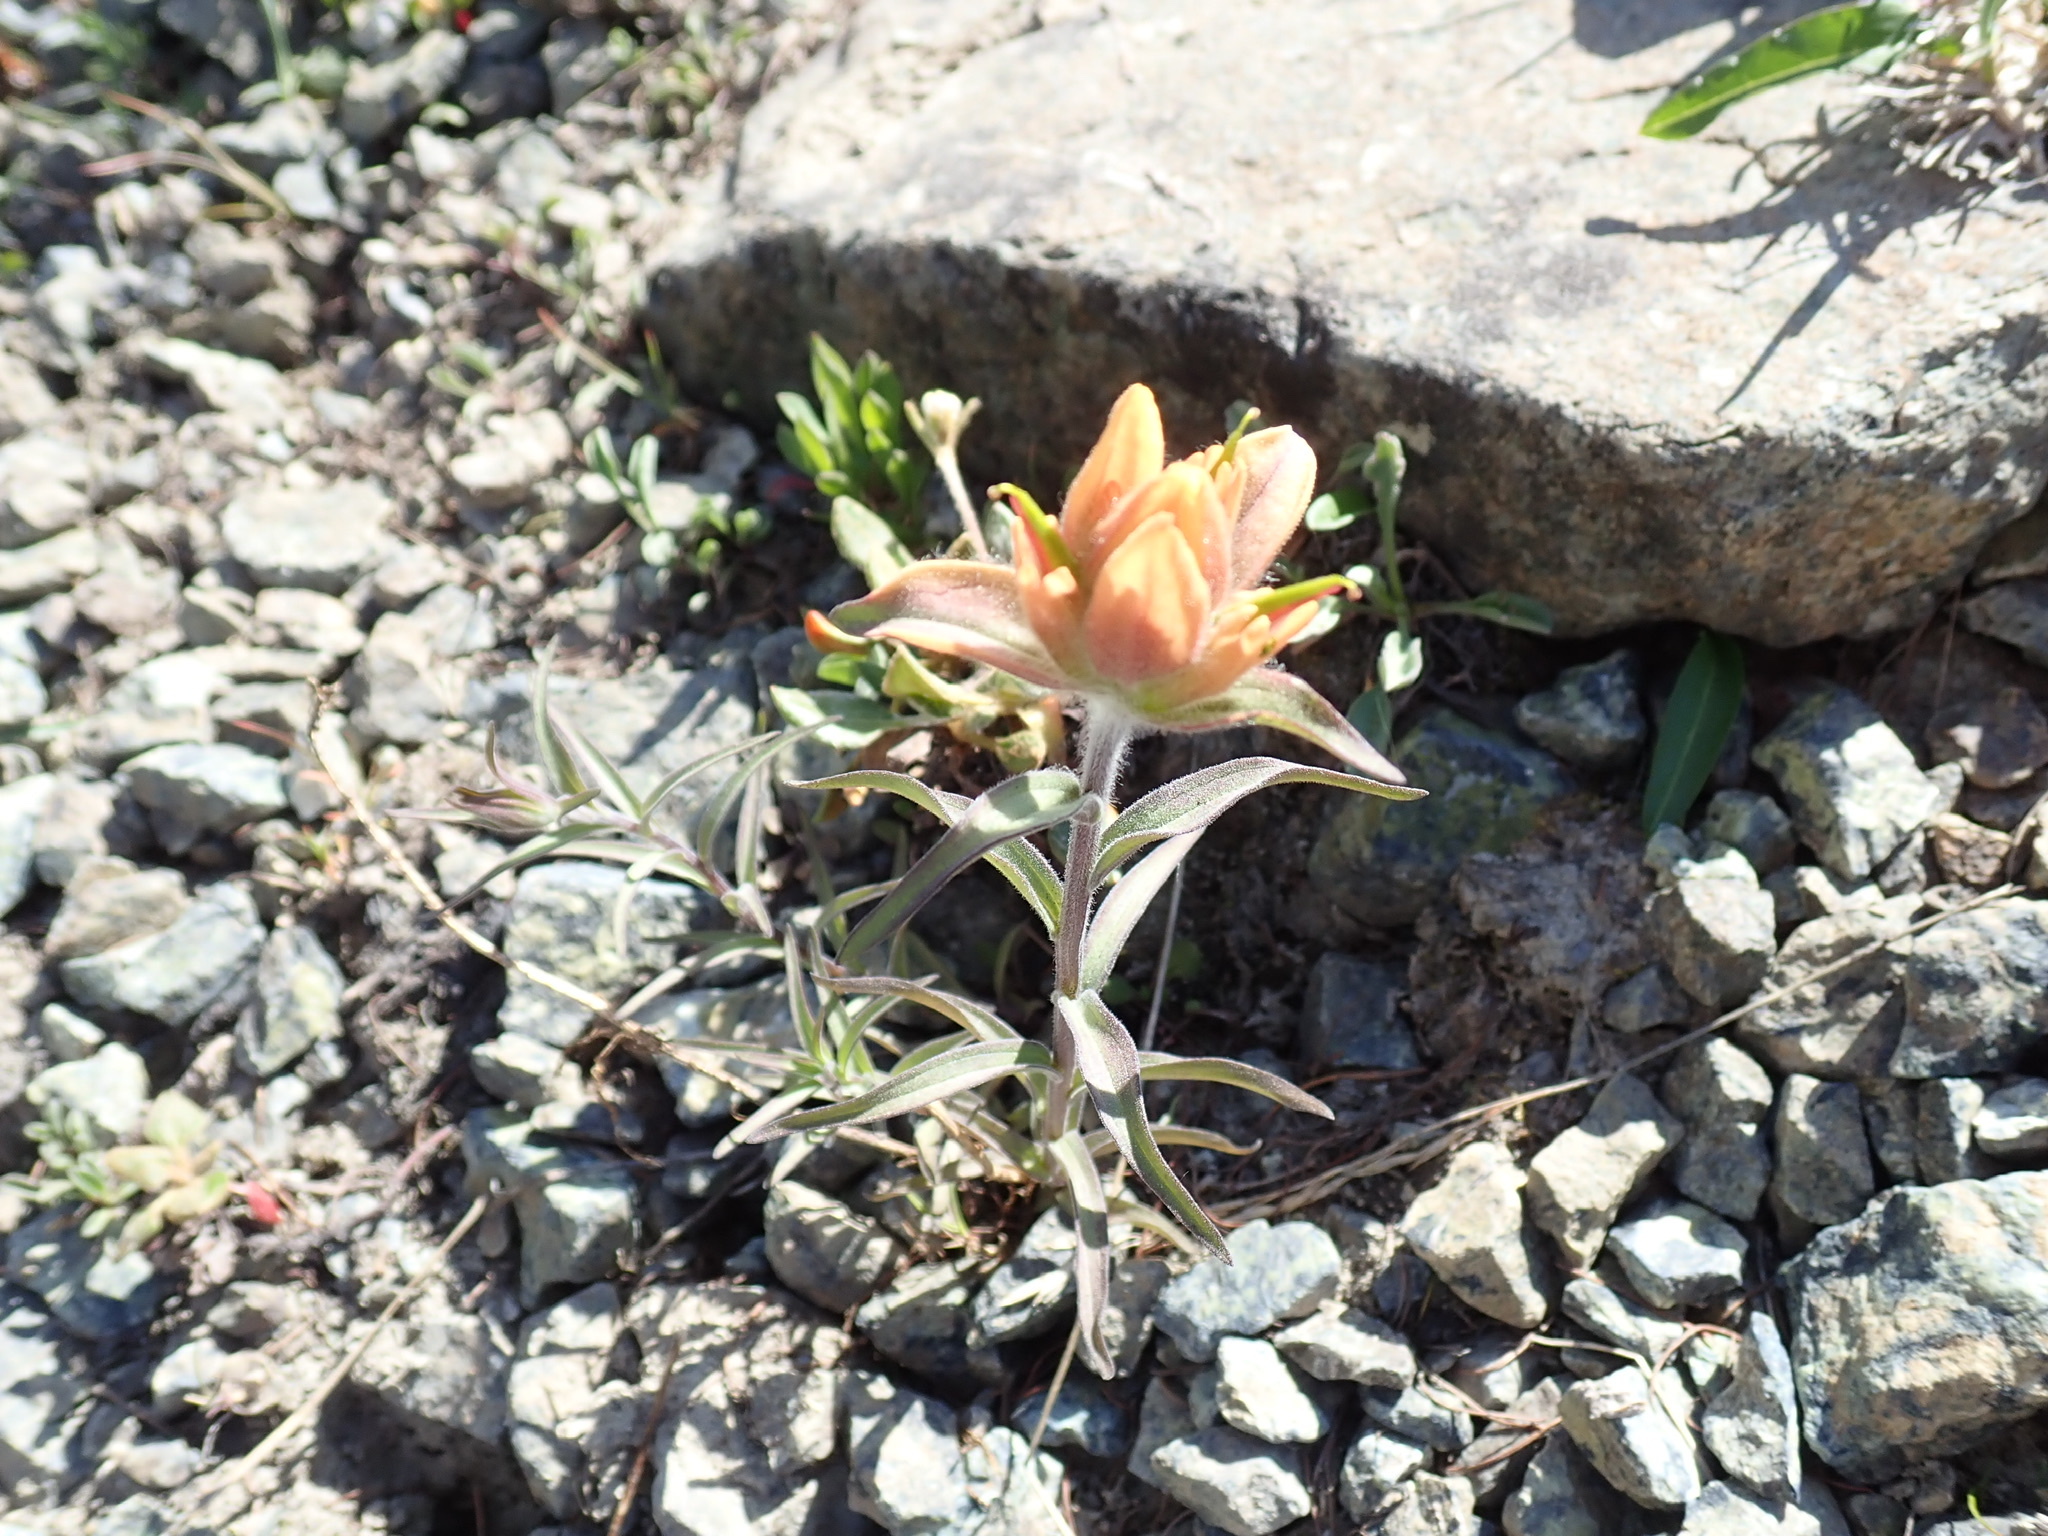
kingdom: Plantae
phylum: Tracheophyta
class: Magnoliopsida
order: Lamiales
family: Orobanchaceae
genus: Castilleja
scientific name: Castilleja elmeri
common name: Elmer's paintbrush
